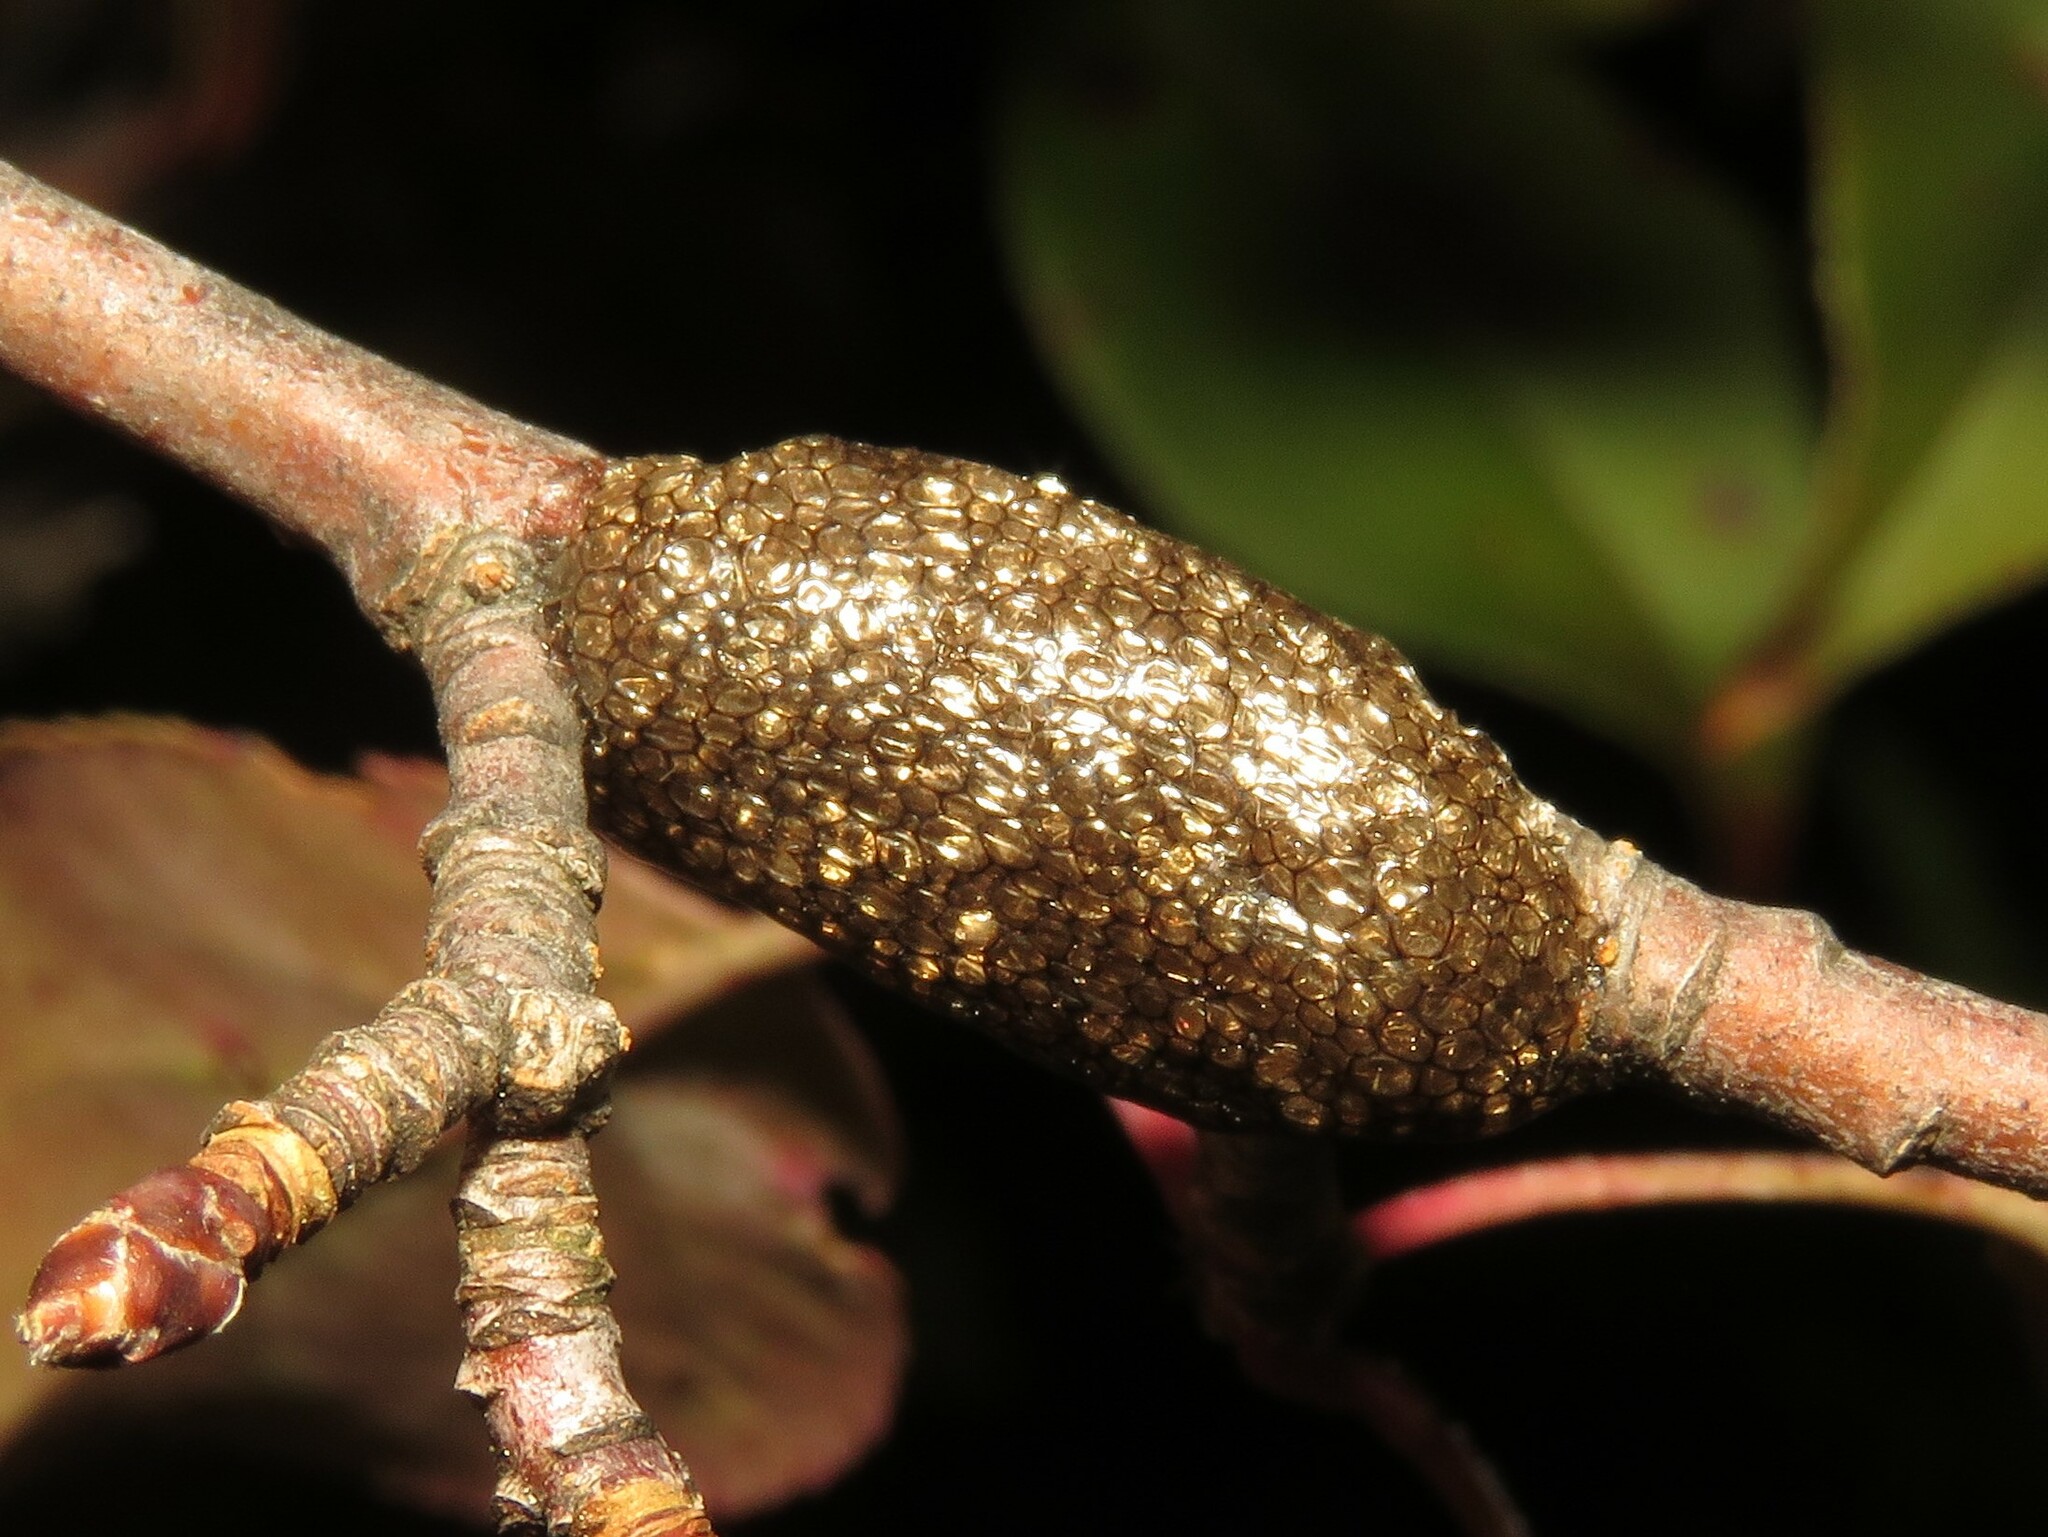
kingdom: Animalia
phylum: Arthropoda
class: Insecta
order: Lepidoptera
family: Lasiocampidae
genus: Malacosoma
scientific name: Malacosoma americana
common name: Eastern tent caterpillar moth
